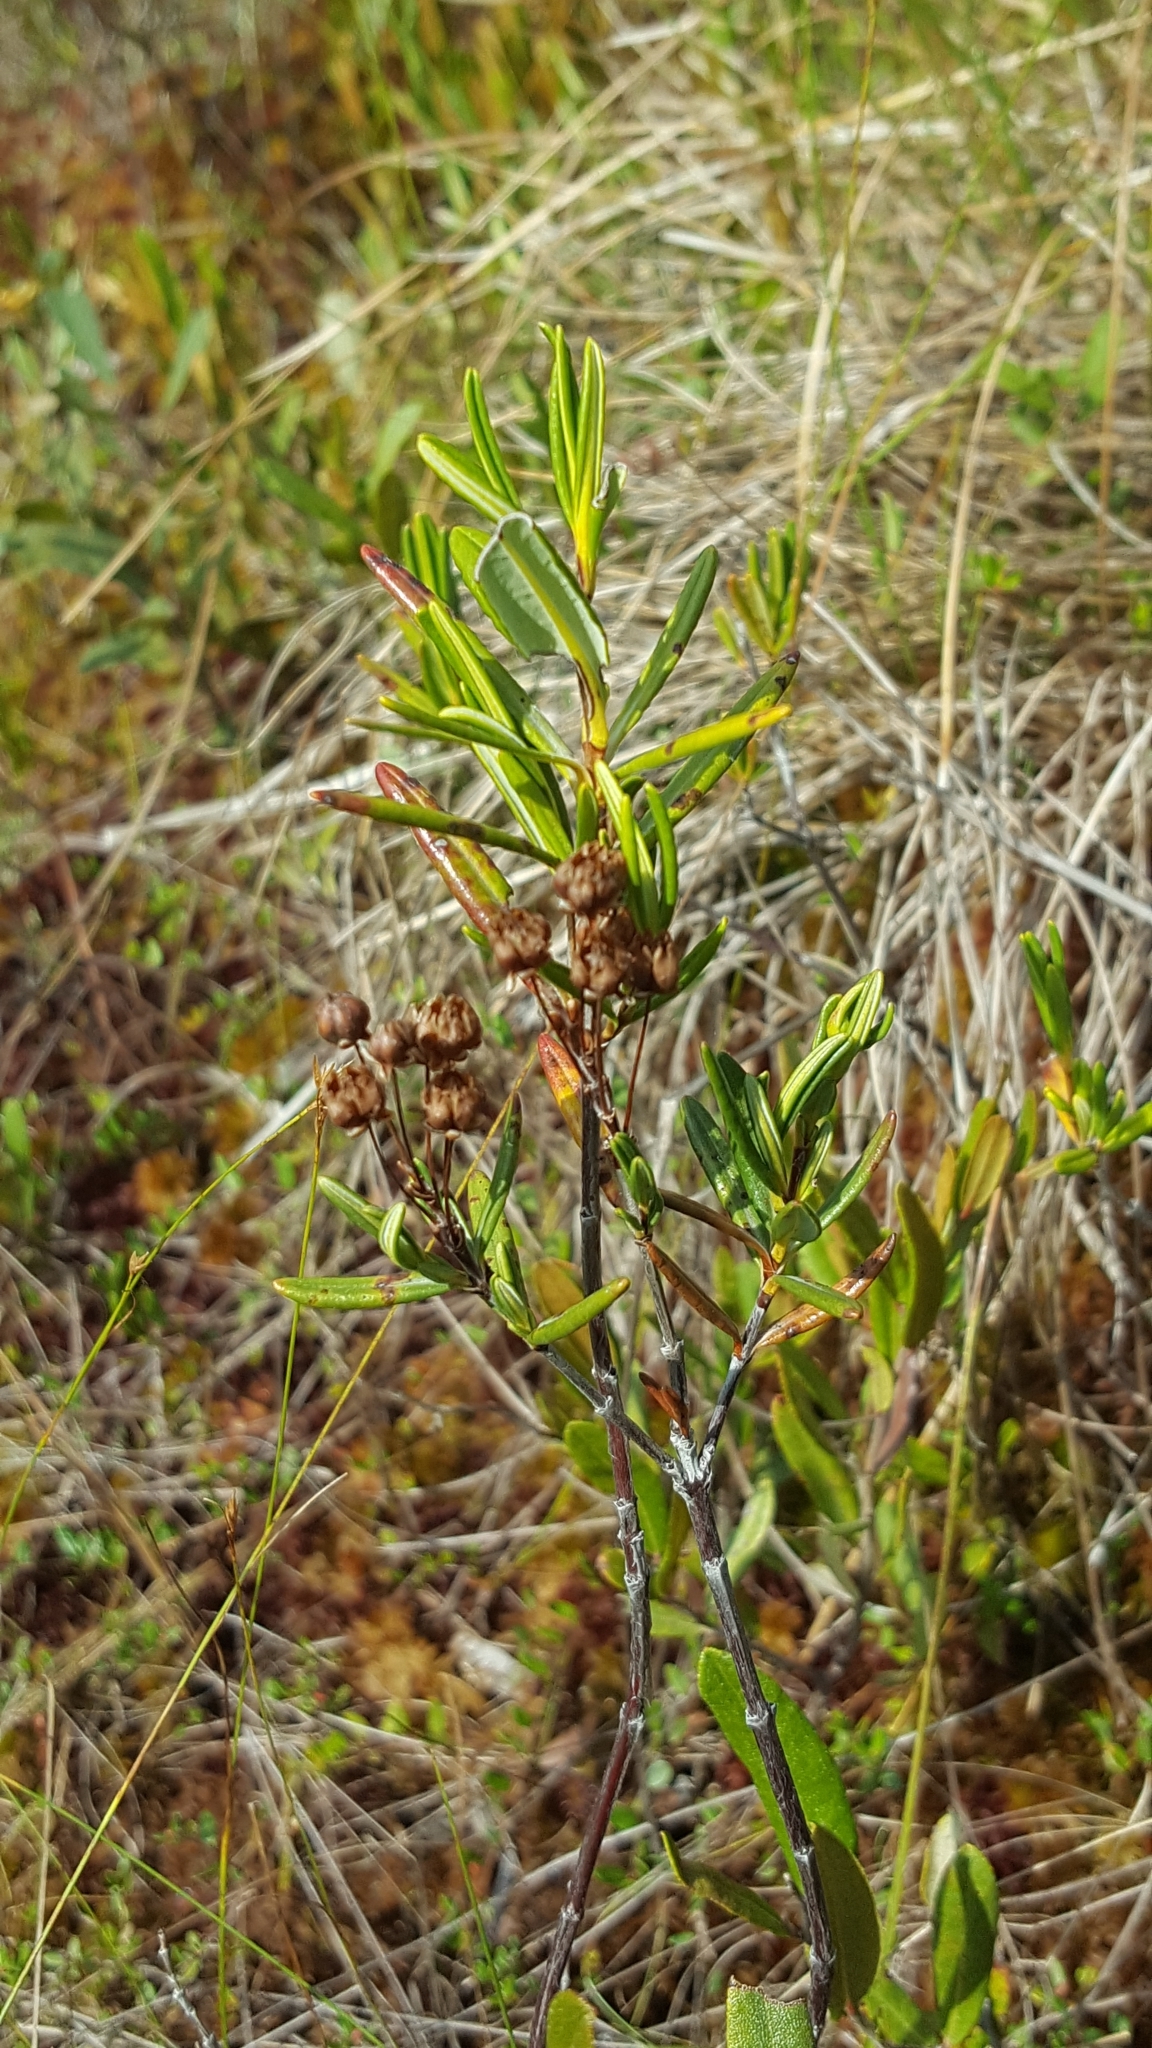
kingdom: Plantae
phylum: Tracheophyta
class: Magnoliopsida
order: Ericales
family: Ericaceae
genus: Kalmia
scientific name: Kalmia polifolia
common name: Bog-laurel
